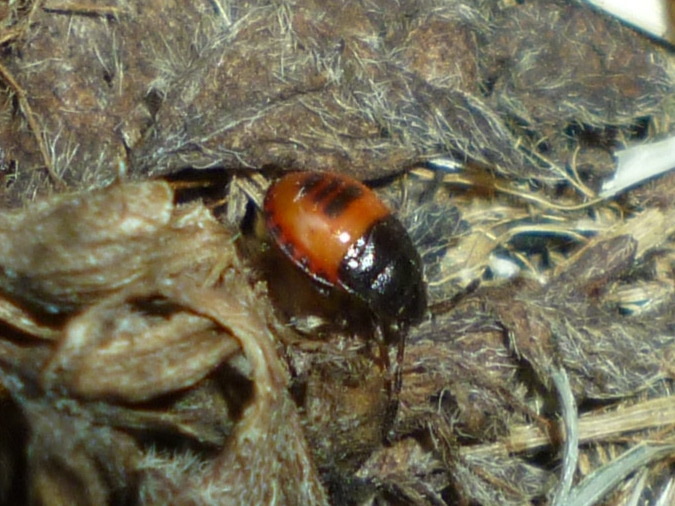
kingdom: Animalia
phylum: Arthropoda
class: Insecta
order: Hemiptera
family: Cydnidae
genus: Sehirus
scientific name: Sehirus cinctus
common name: White-margined burrower bug
